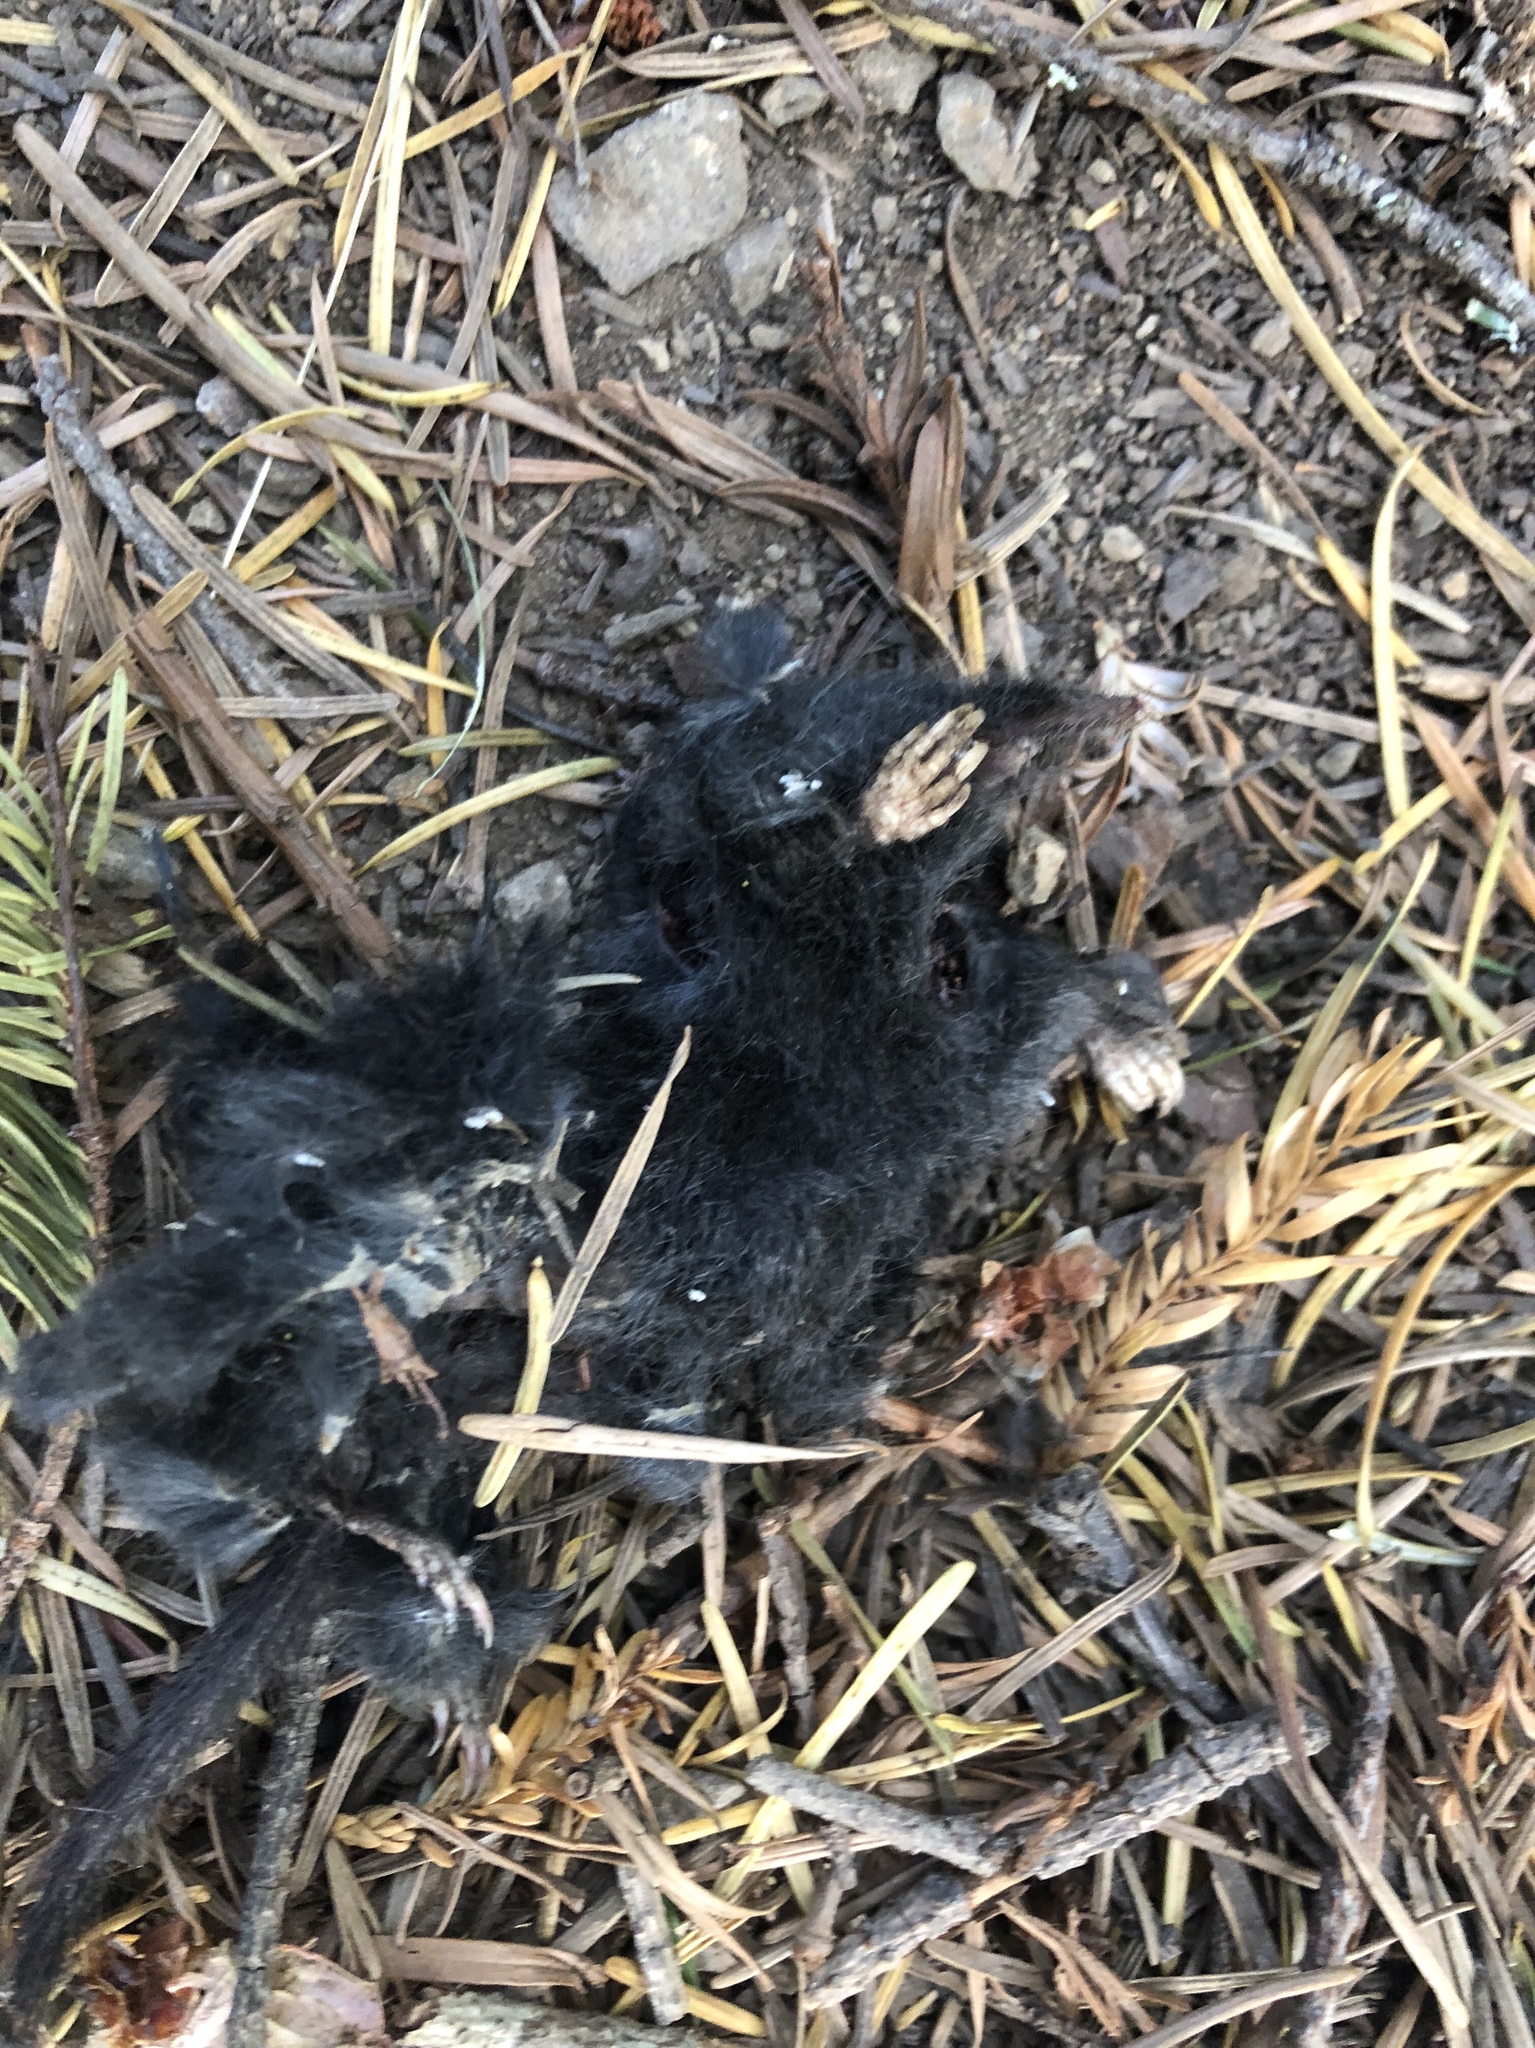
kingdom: Animalia
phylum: Chordata
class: Mammalia
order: Soricomorpha
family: Talpidae
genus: Neurotrichus
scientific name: Neurotrichus gibbsii
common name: American shrew mole
